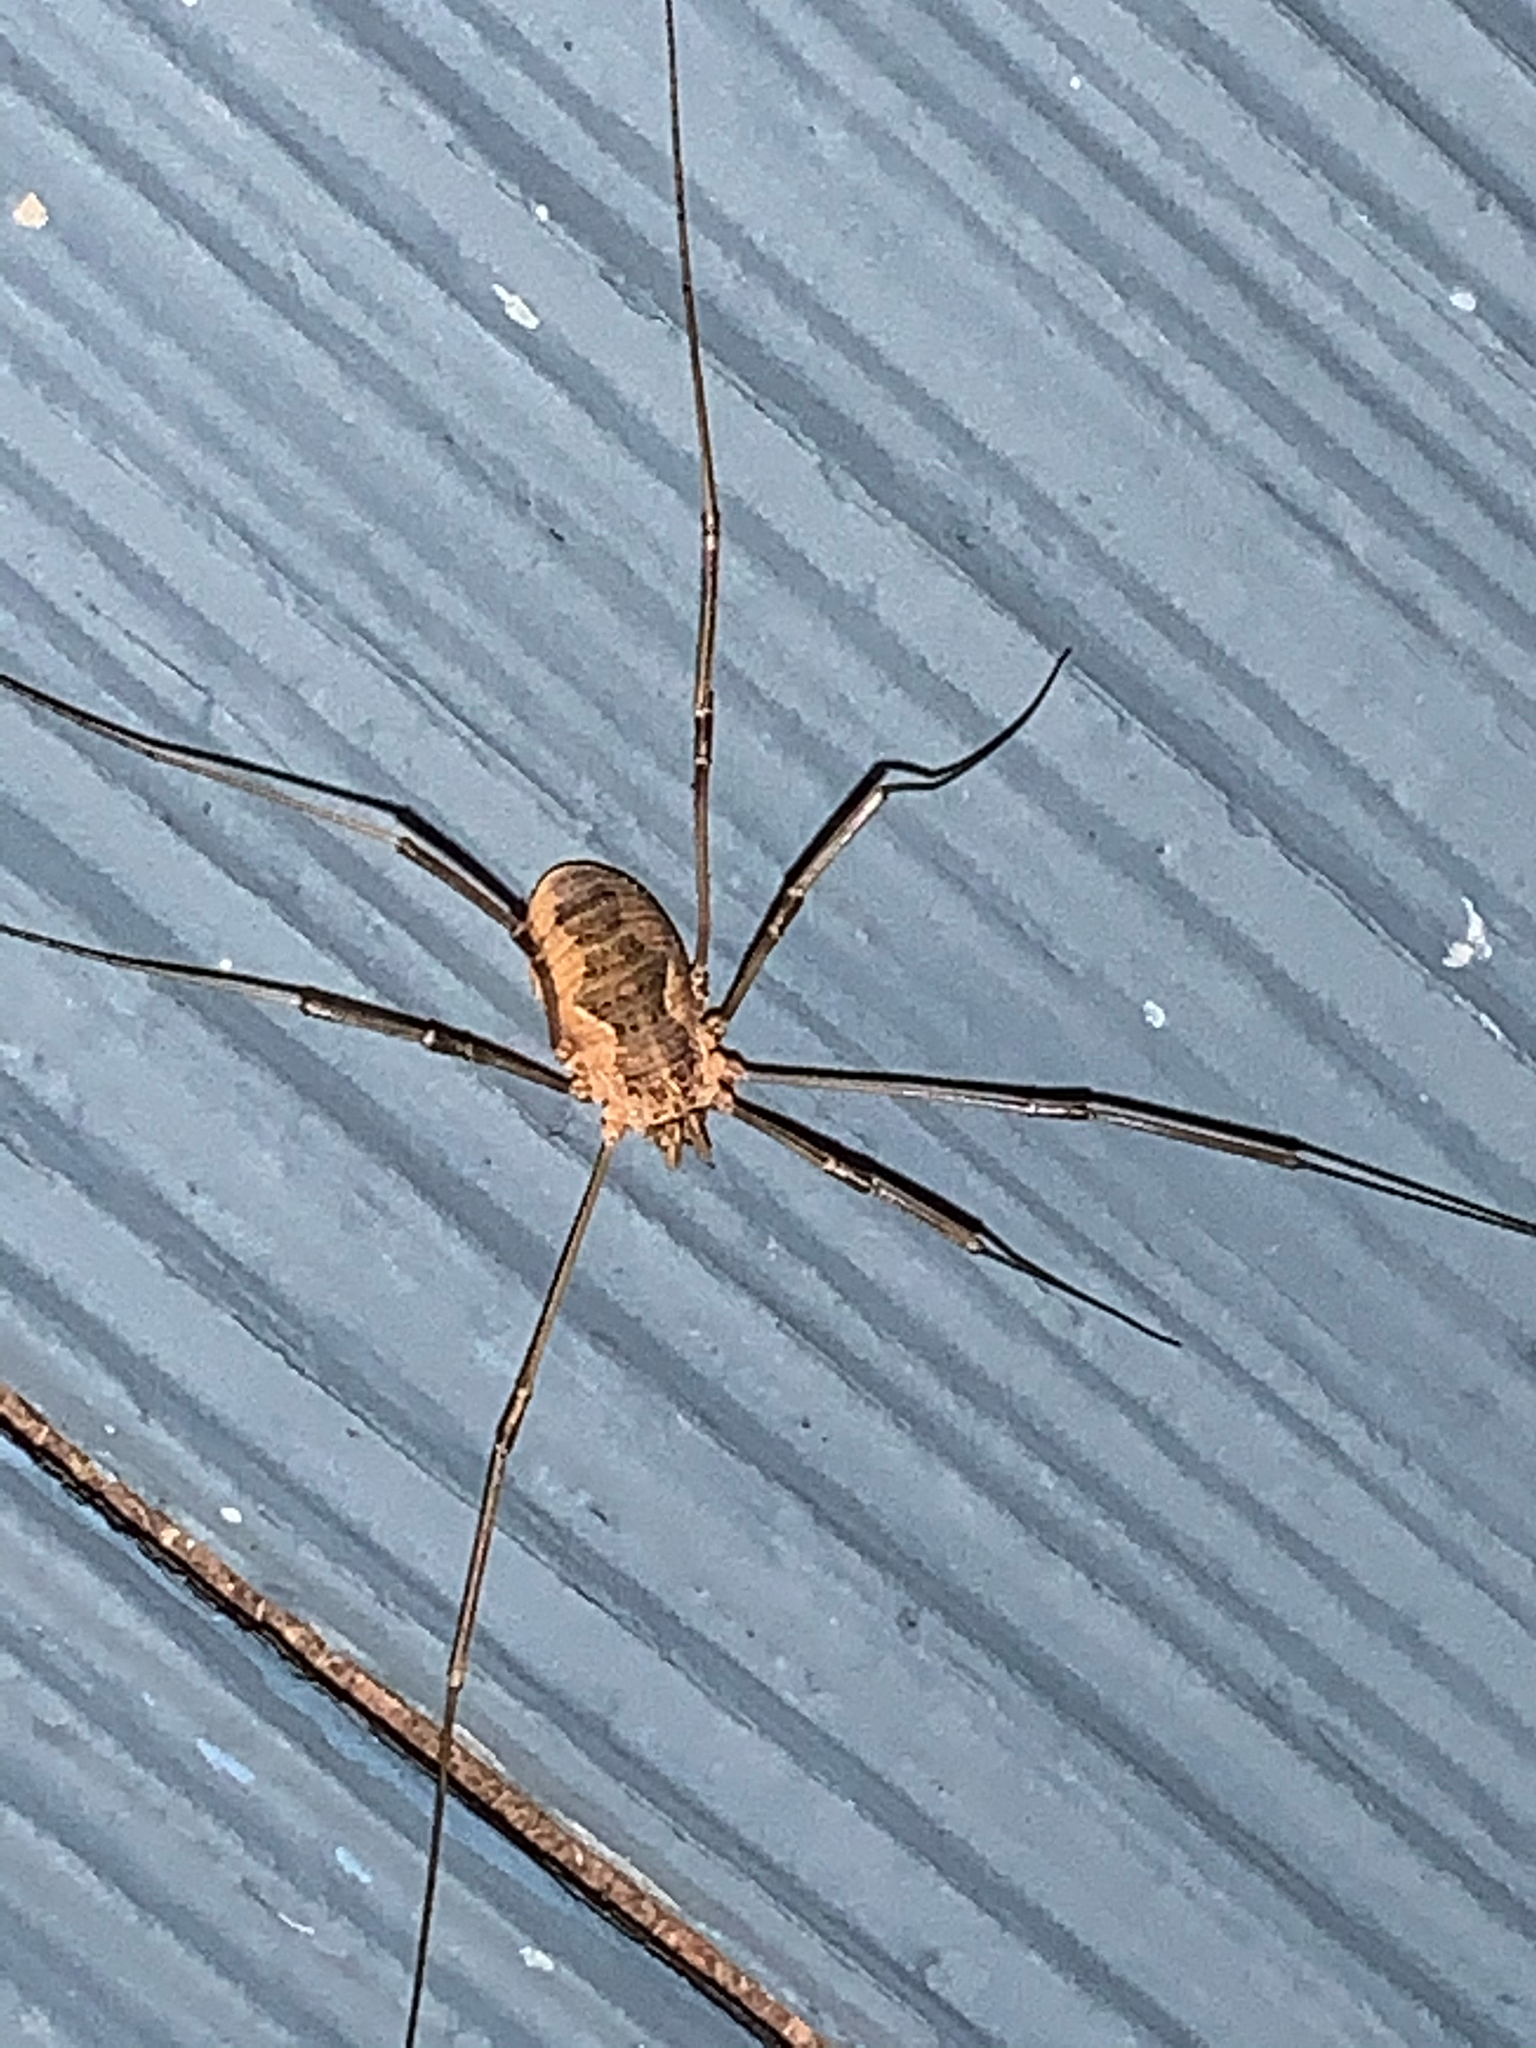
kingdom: Animalia
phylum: Arthropoda
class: Arachnida
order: Opiliones
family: Phalangiidae
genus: Phalangium
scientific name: Phalangium opilio
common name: Daddy longleg
